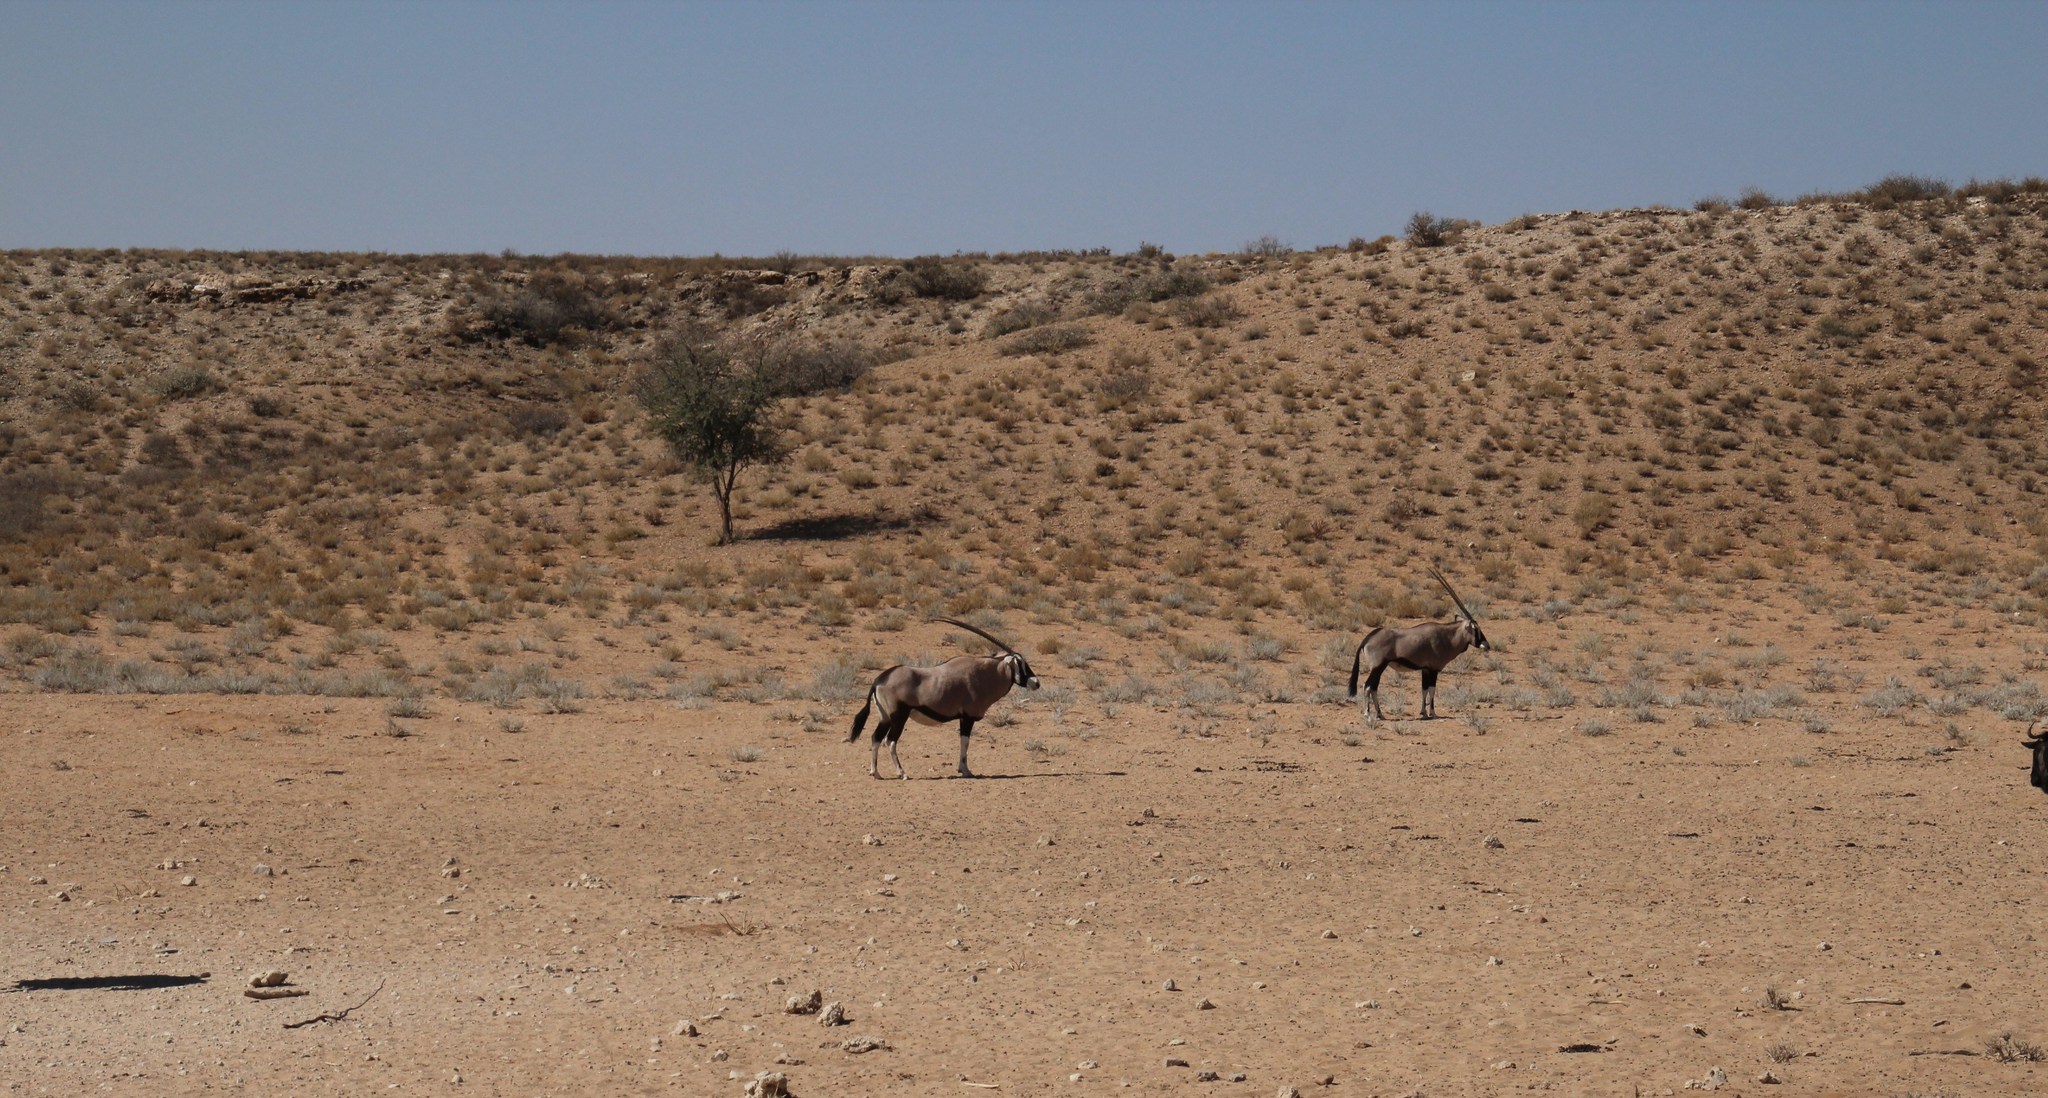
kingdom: Animalia
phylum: Chordata
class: Mammalia
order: Artiodactyla
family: Bovidae
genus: Oryx
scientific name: Oryx gazella
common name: Gemsbok
